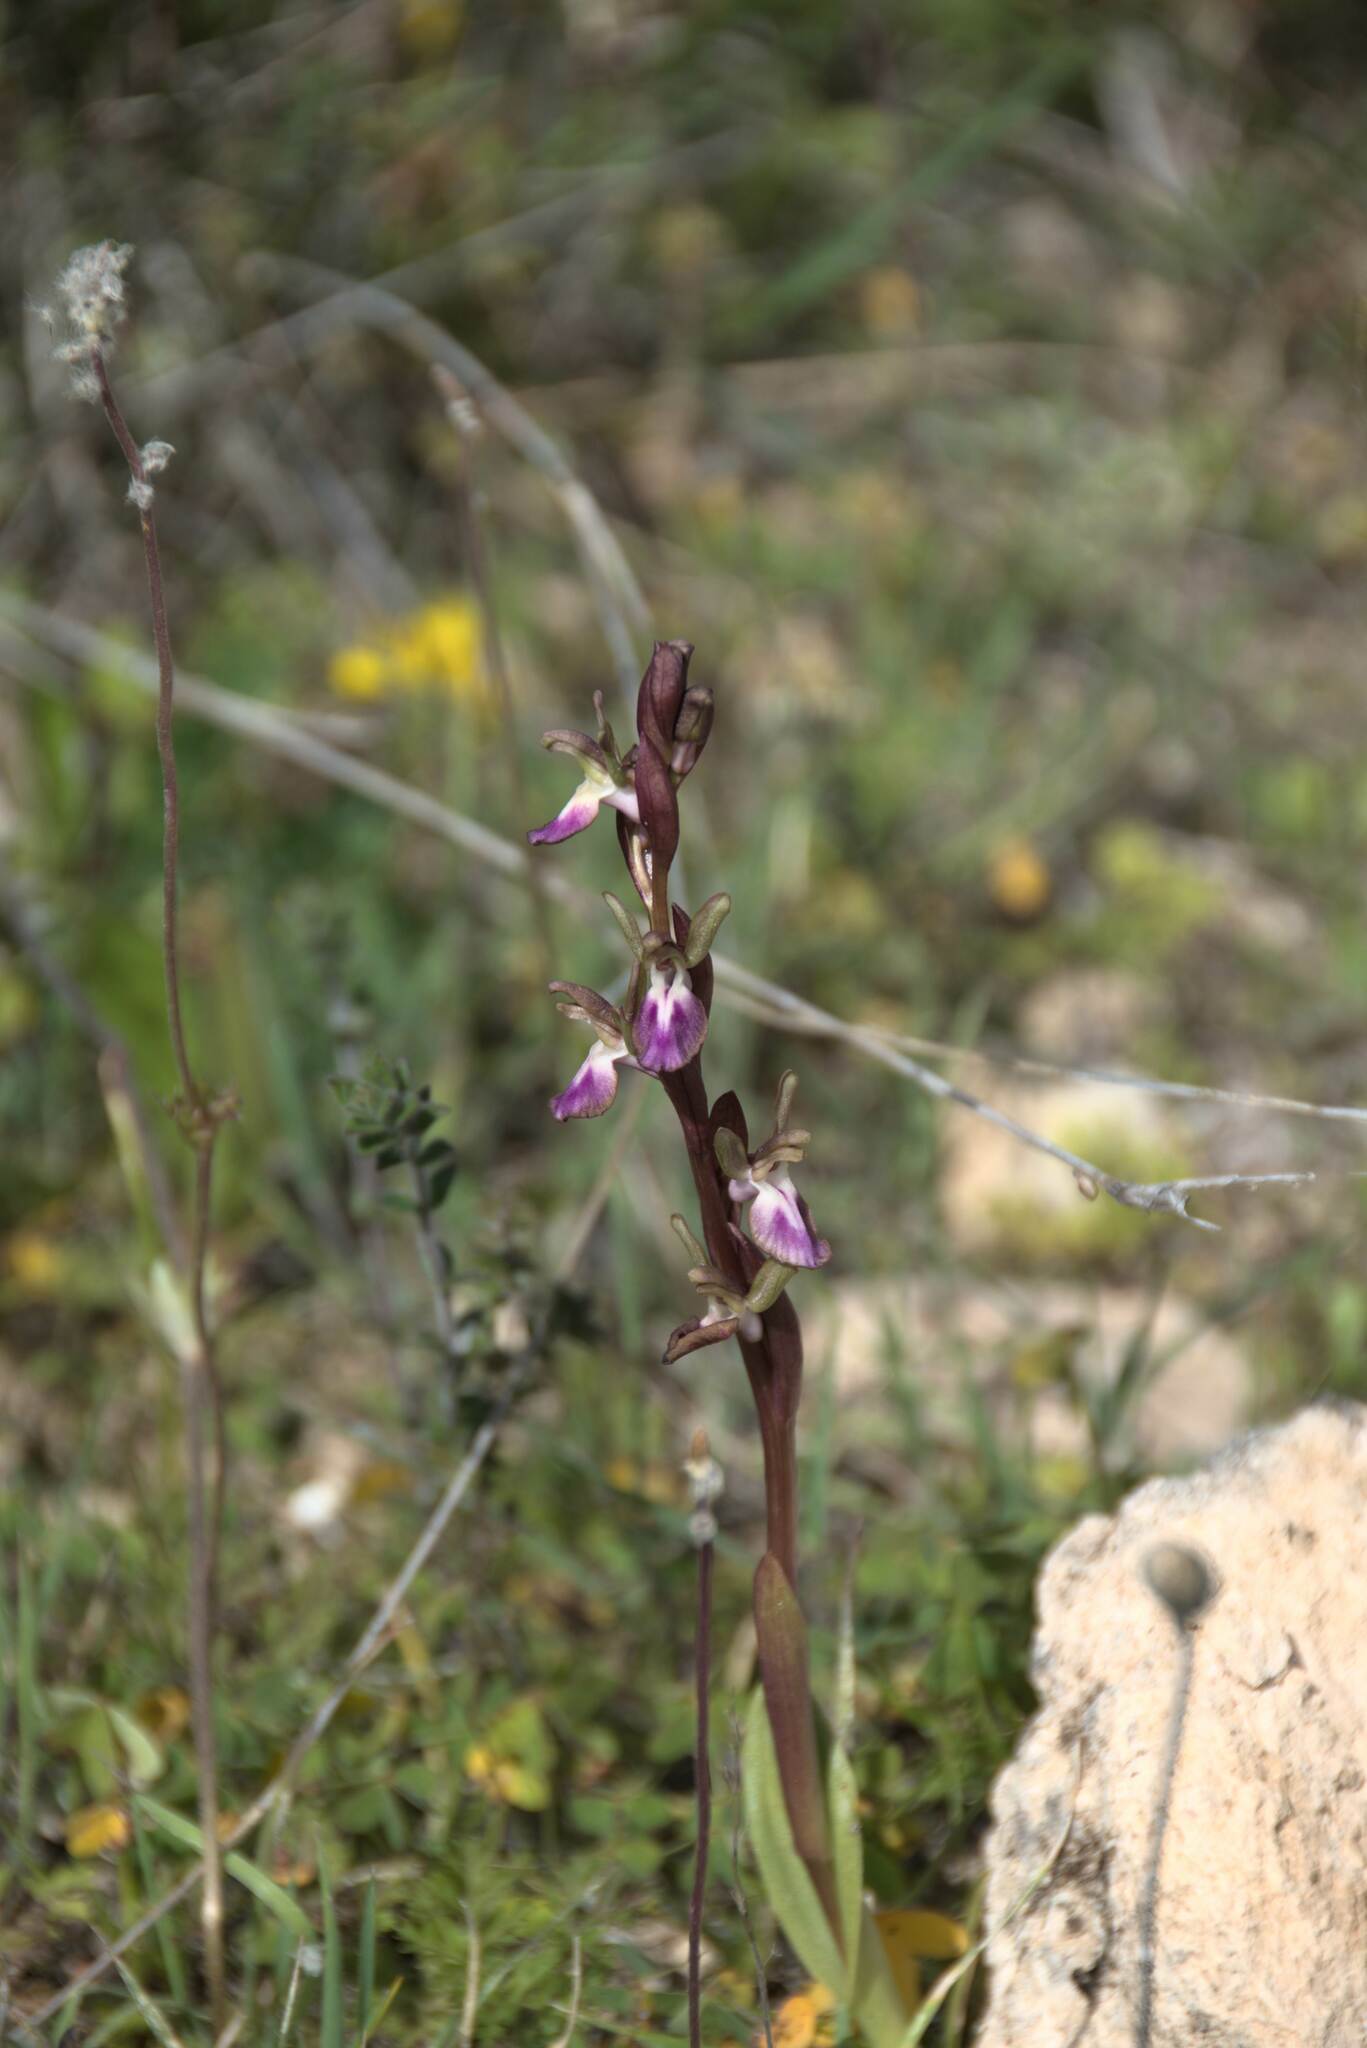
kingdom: Plantae
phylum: Tracheophyta
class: Liliopsida
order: Asparagales
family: Orchidaceae
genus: Anacamptis
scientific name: Anacamptis collina
